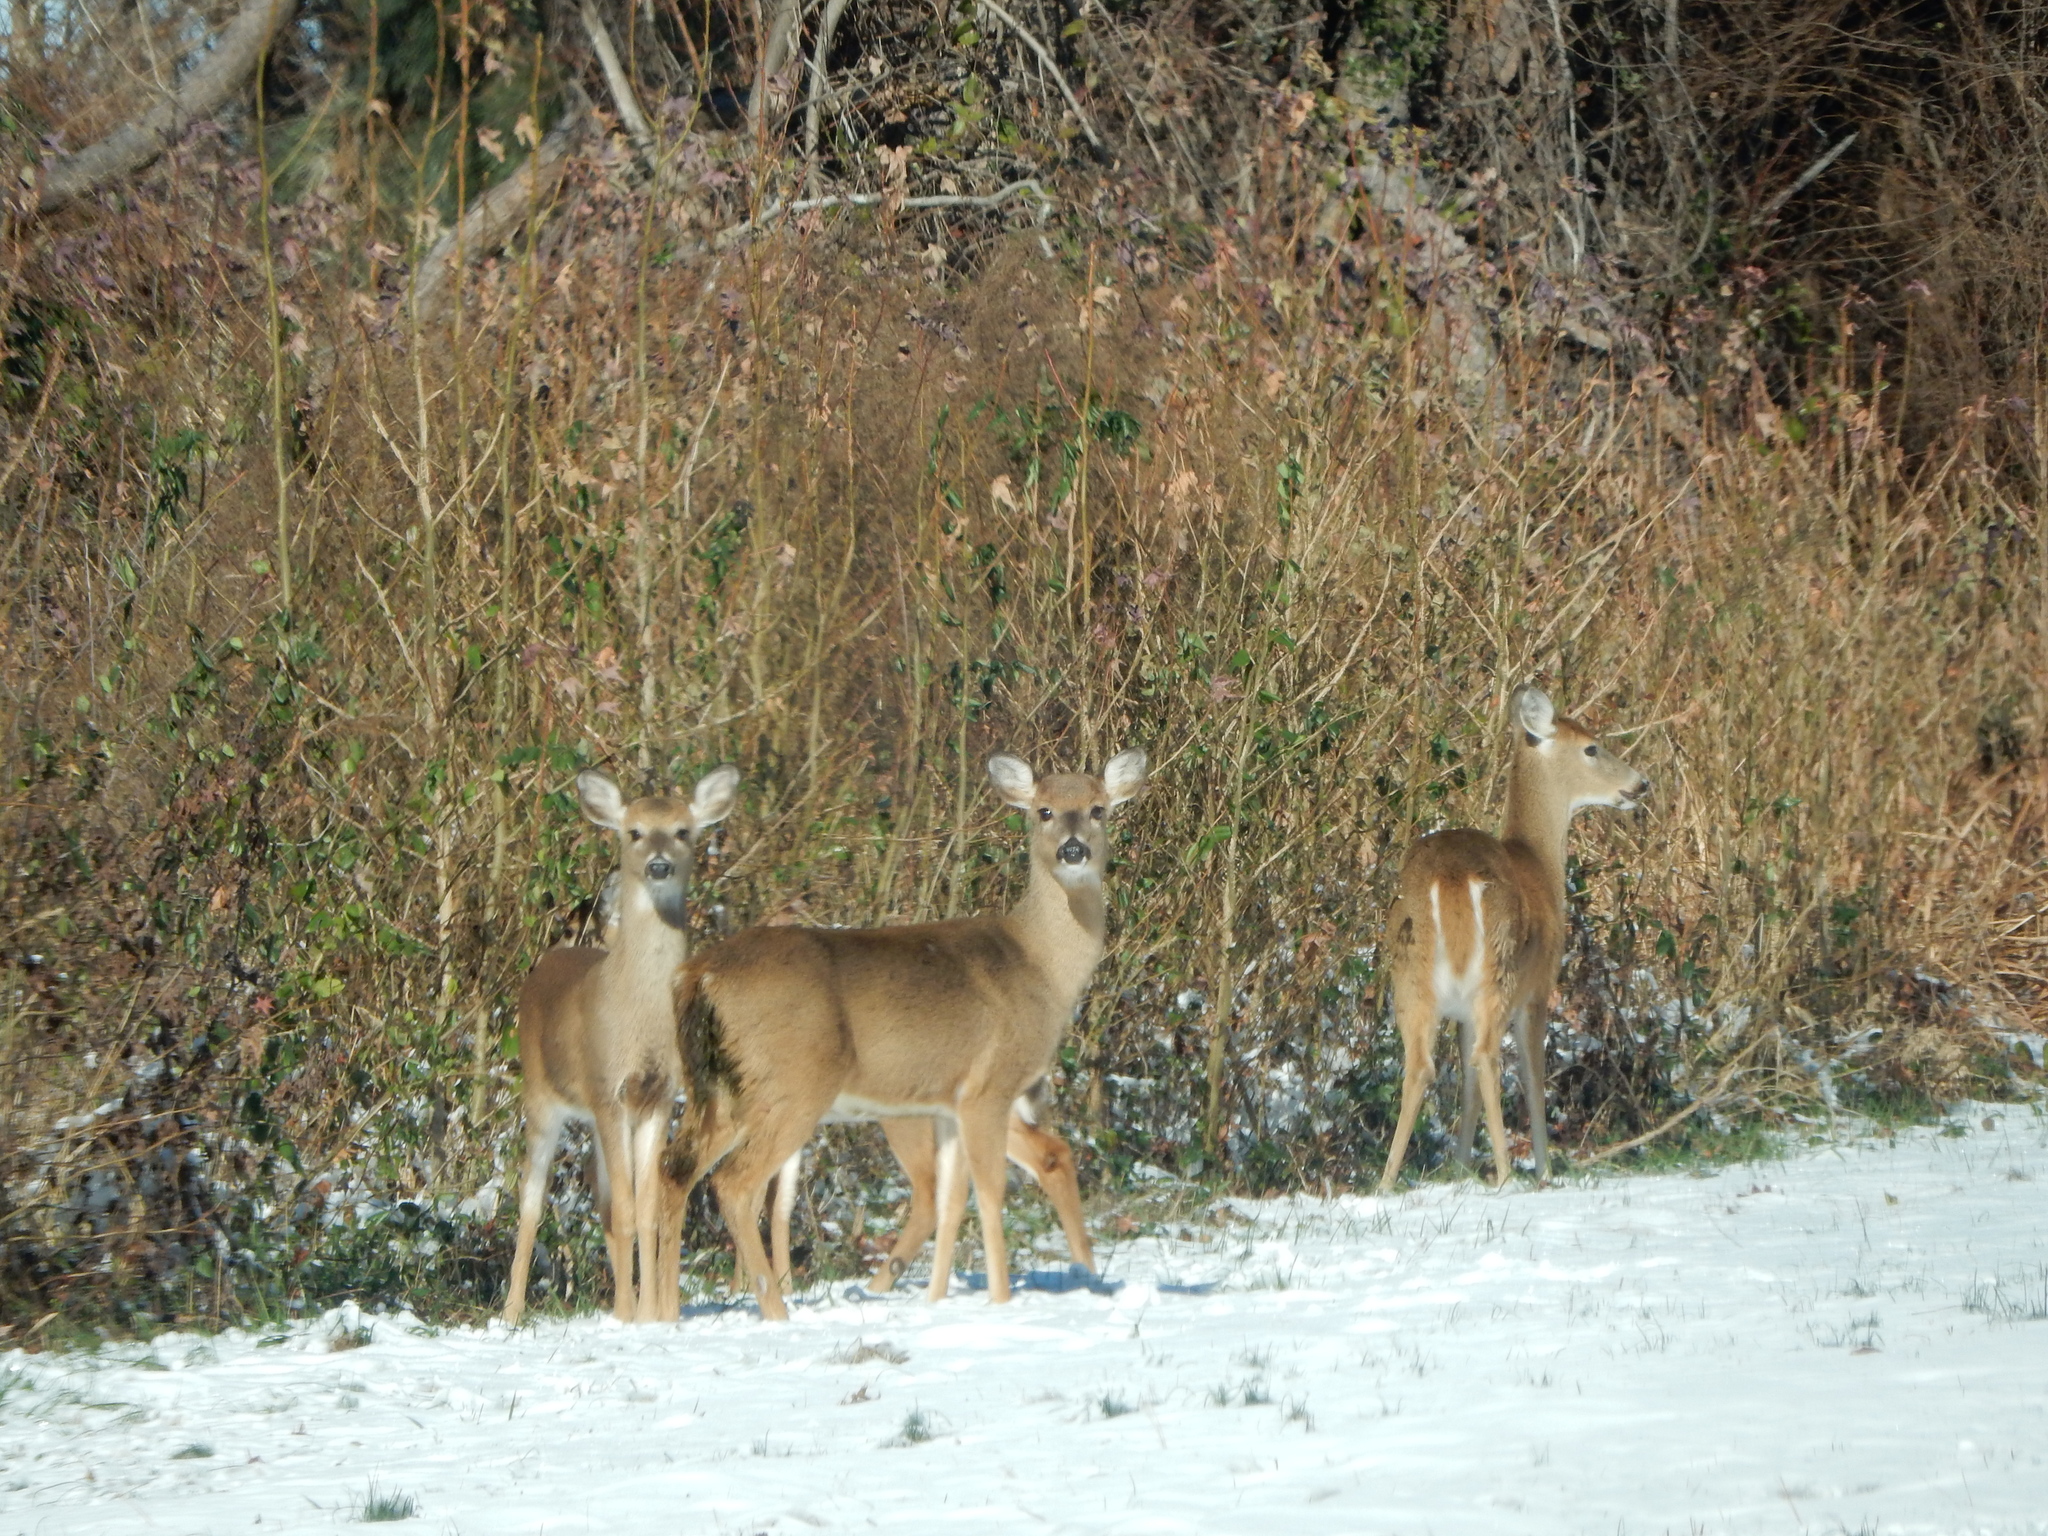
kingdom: Animalia
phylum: Chordata
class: Mammalia
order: Artiodactyla
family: Cervidae
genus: Odocoileus
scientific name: Odocoileus virginianus
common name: White-tailed deer
